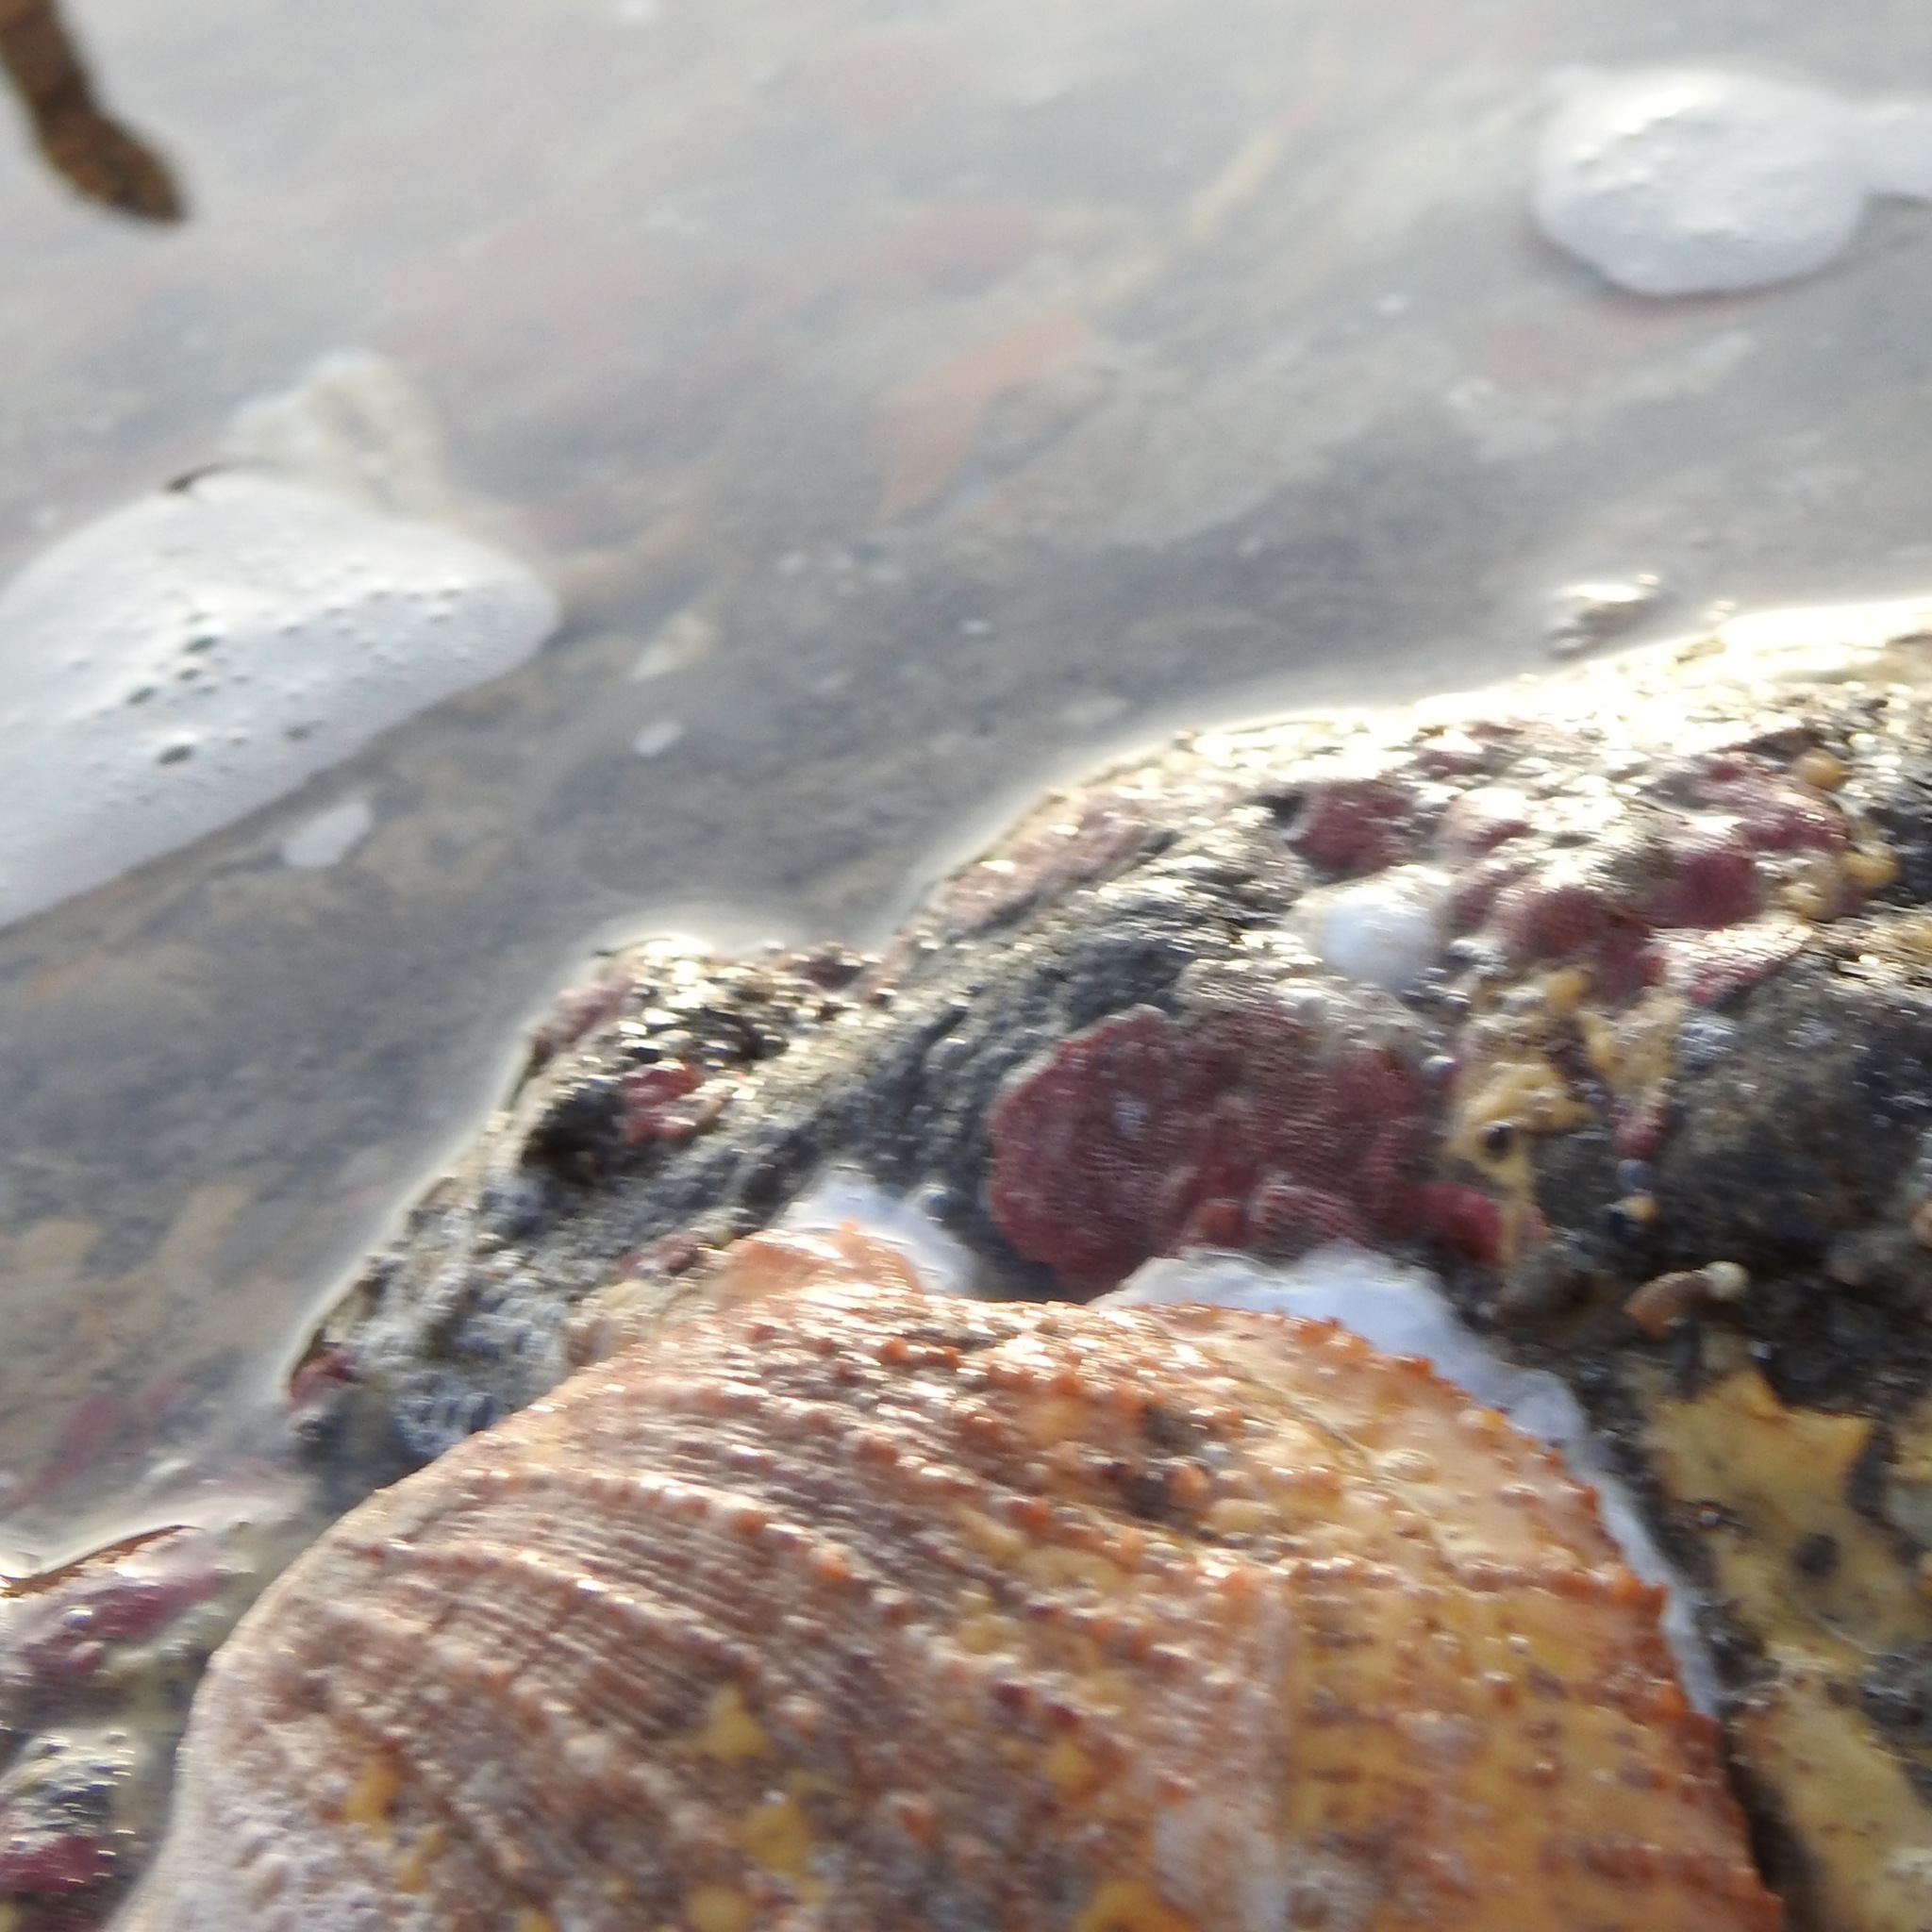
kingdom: Animalia
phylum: Mollusca
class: Bivalvia
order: Pectinida
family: Pectinidae
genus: Crassadoma
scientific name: Crassadoma gigantea
